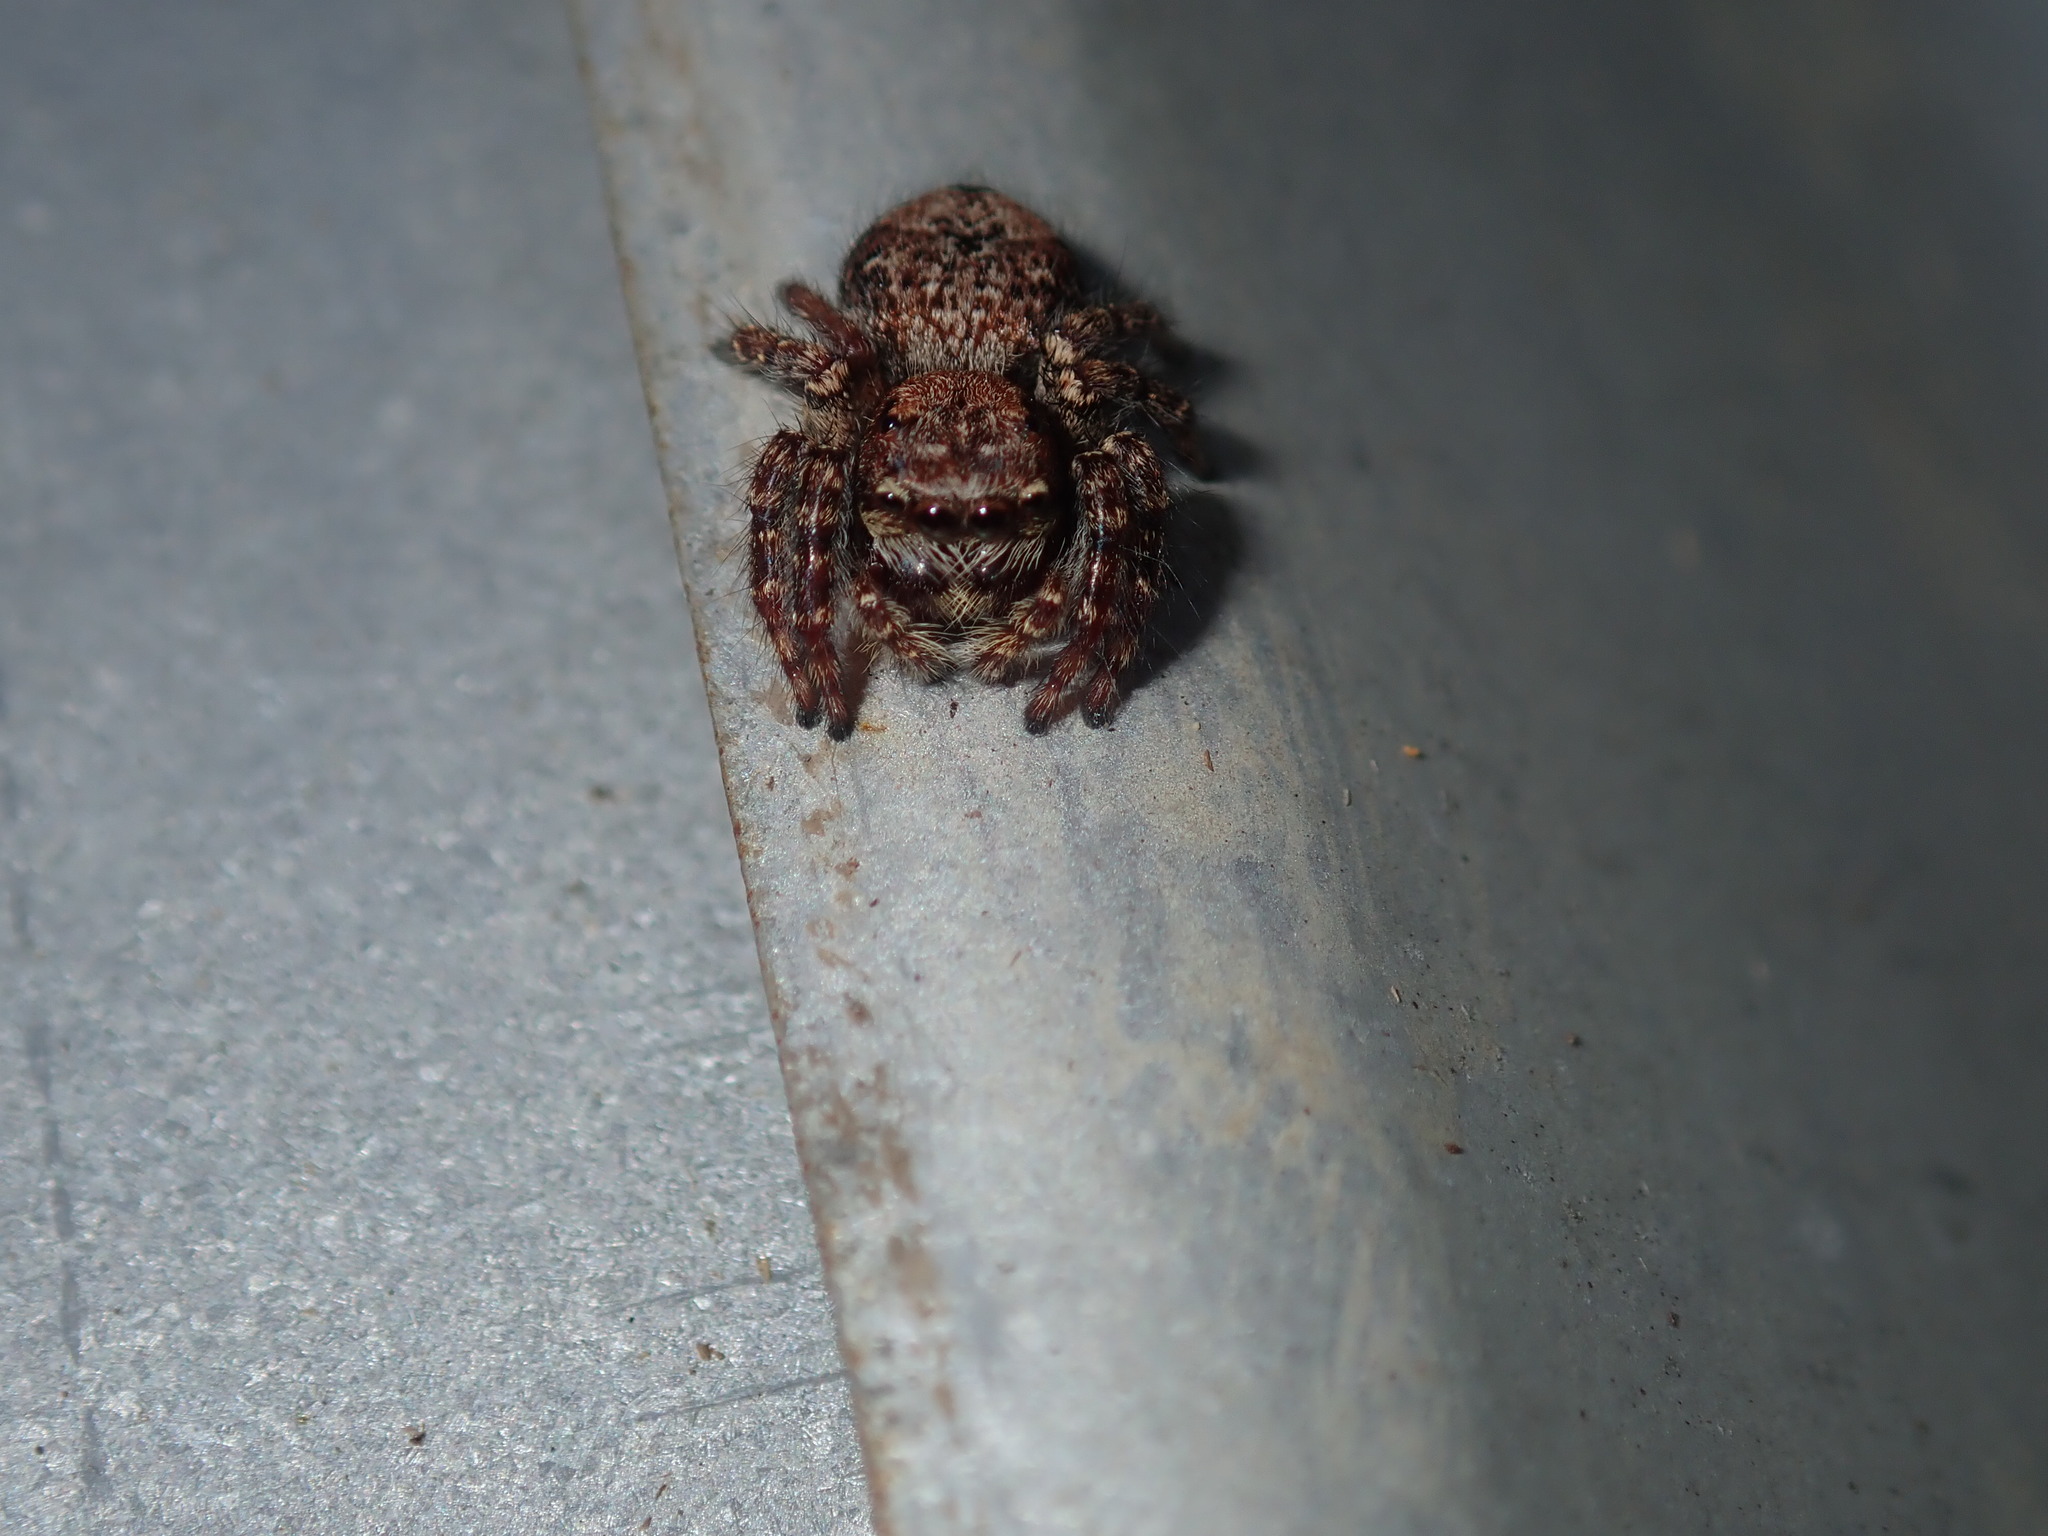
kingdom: Animalia
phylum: Arthropoda
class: Arachnida
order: Araneae
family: Salticidae
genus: Servaea
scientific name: Servaea incana
